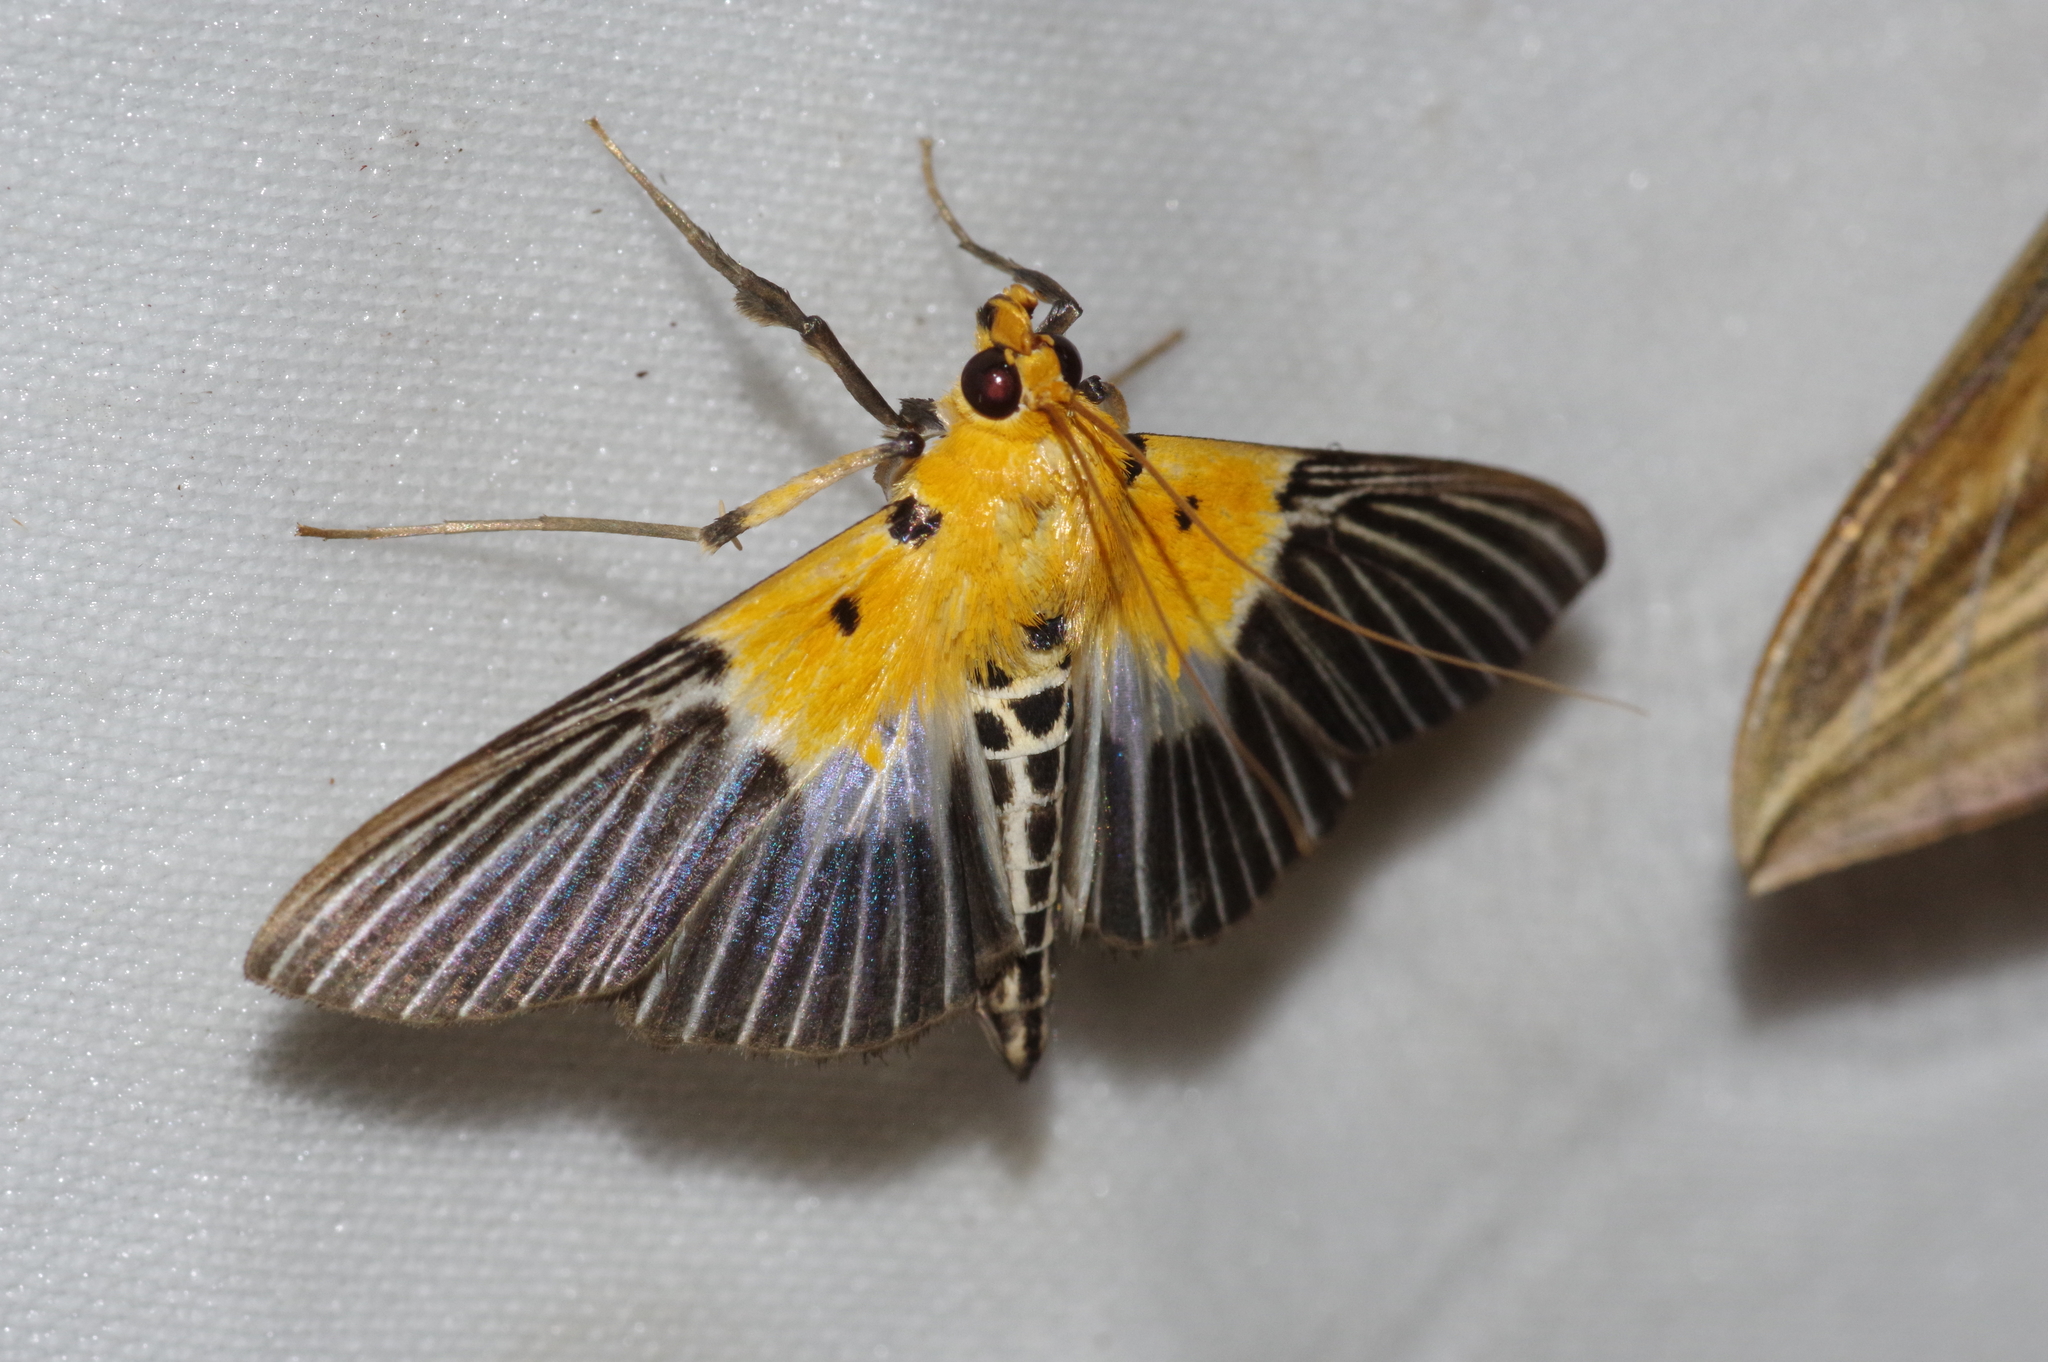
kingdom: Animalia
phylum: Arthropoda
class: Insecta
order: Lepidoptera
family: Crambidae
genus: Nevrina
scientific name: Nevrina procopia
